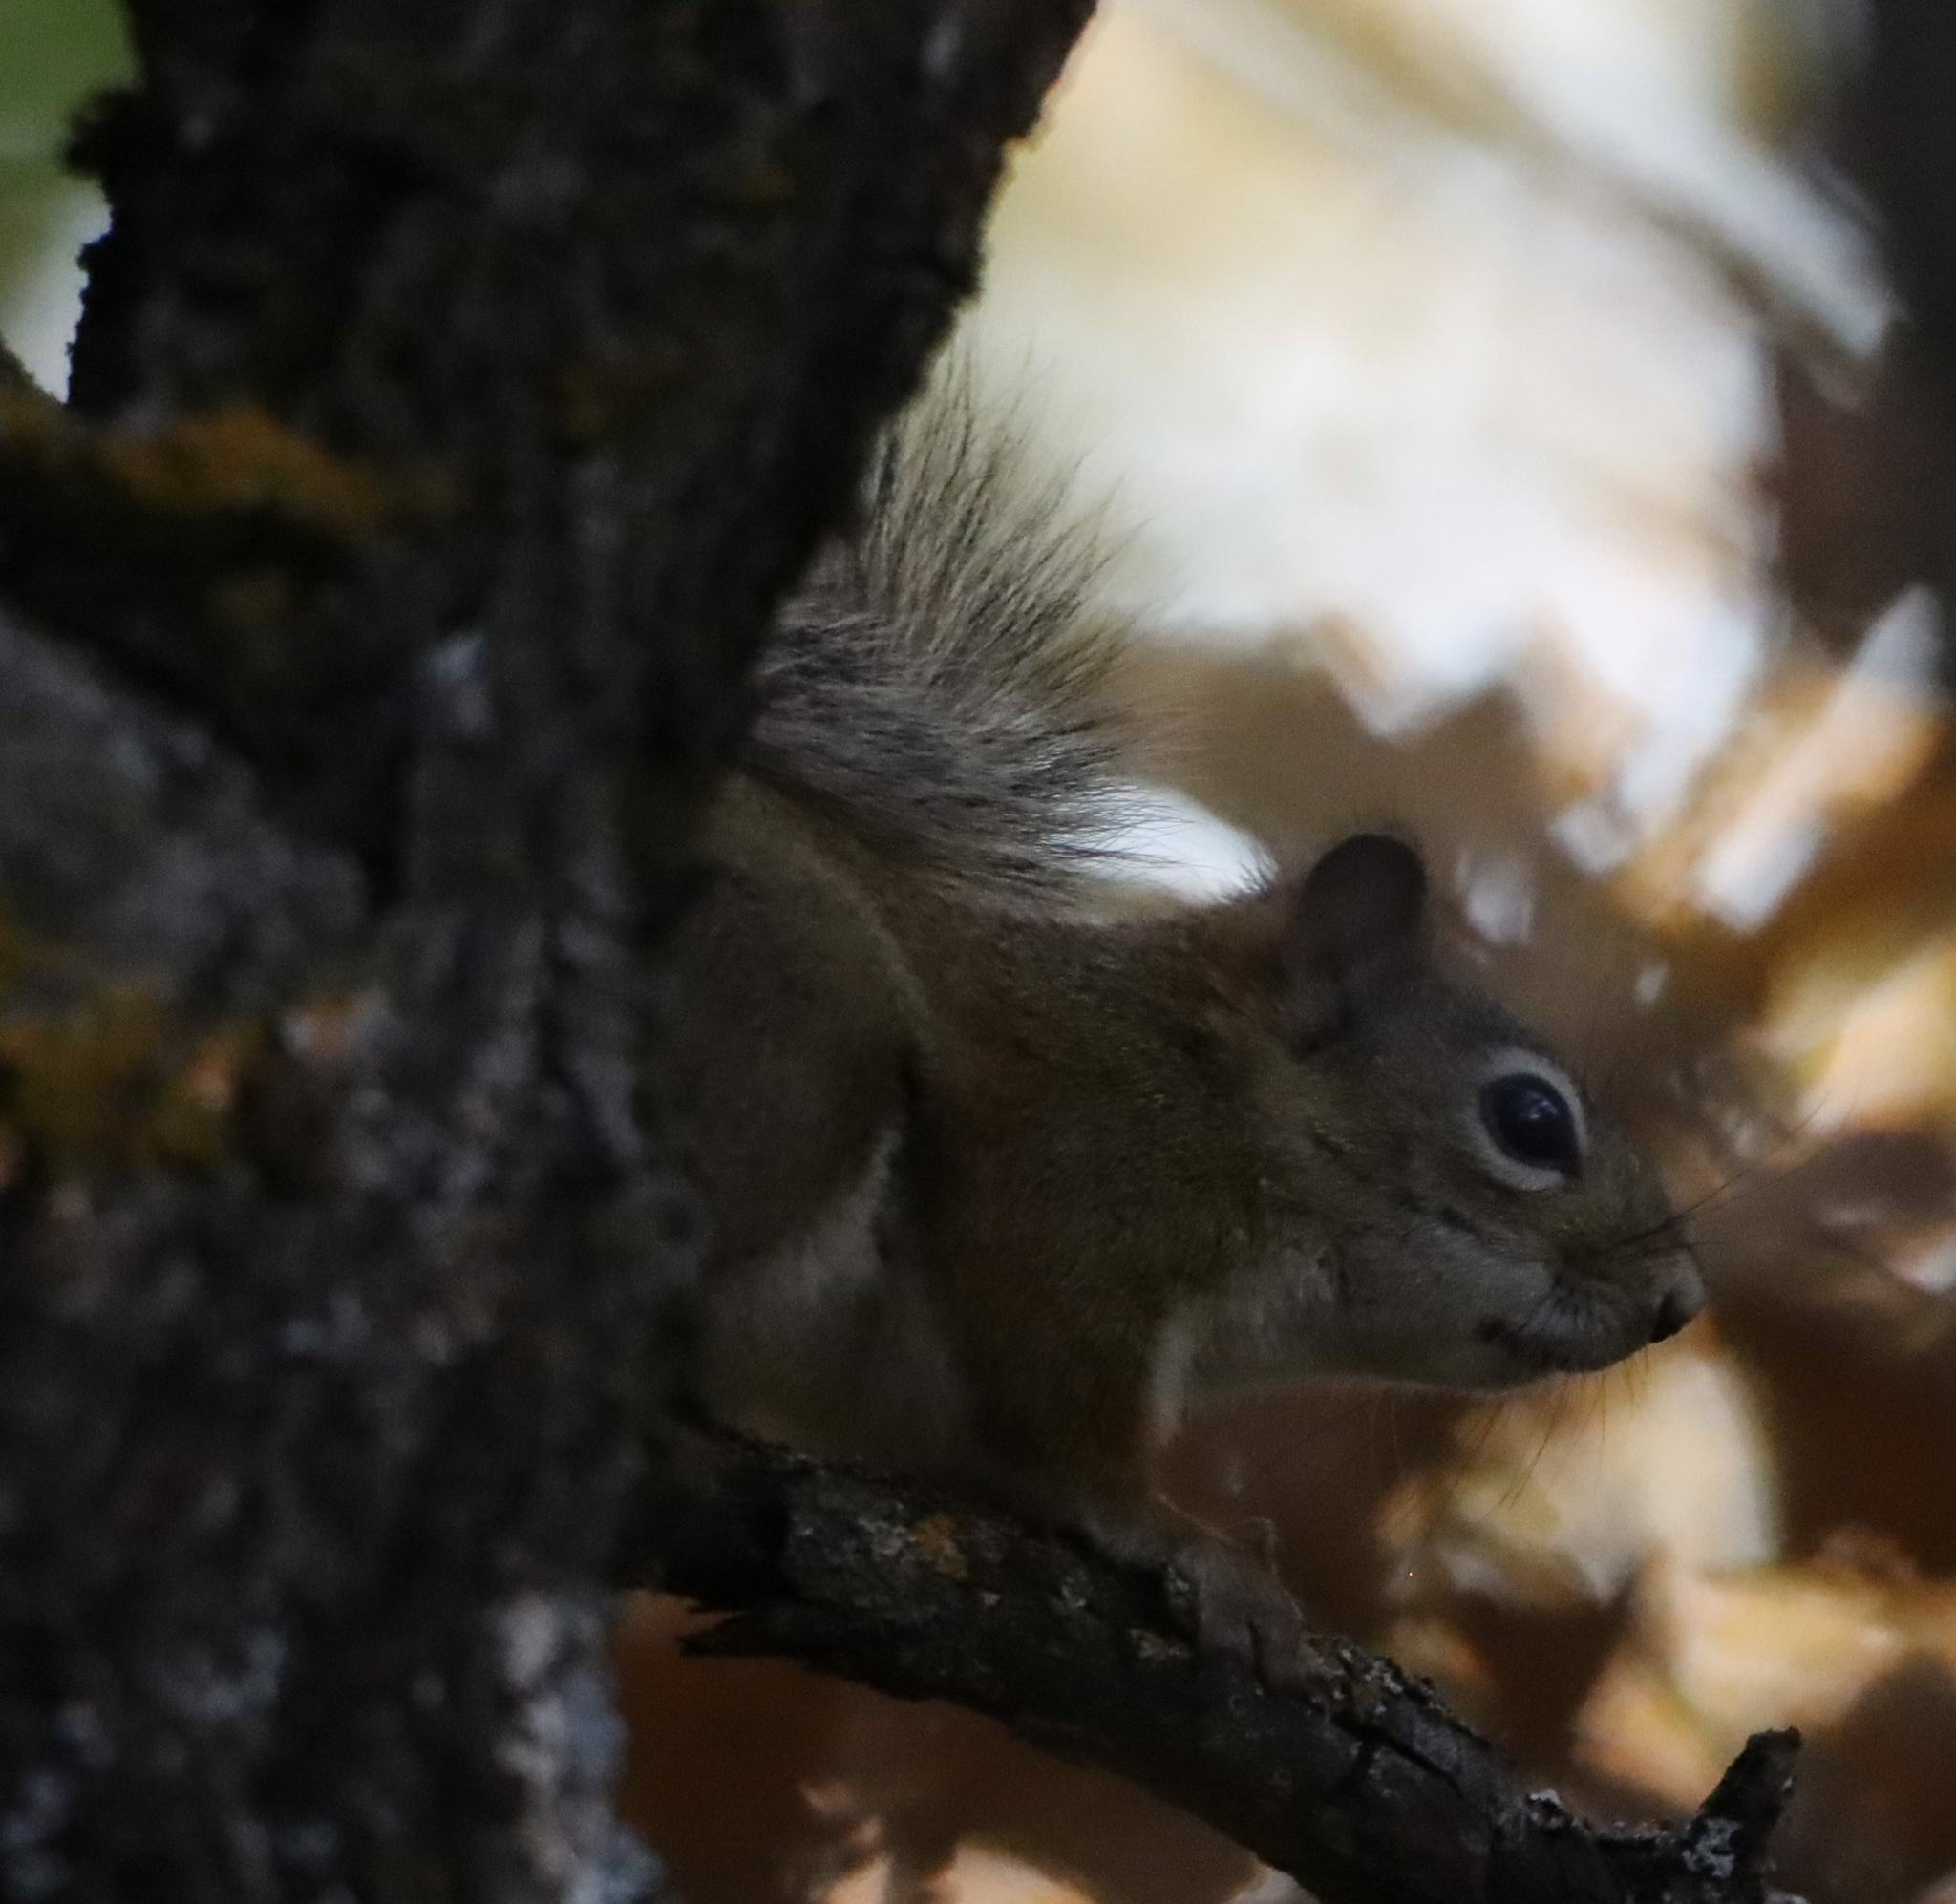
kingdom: Animalia
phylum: Chordata
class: Mammalia
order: Rodentia
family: Sciuridae
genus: Tamiasciurus
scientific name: Tamiasciurus hudsonicus
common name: Red squirrel
